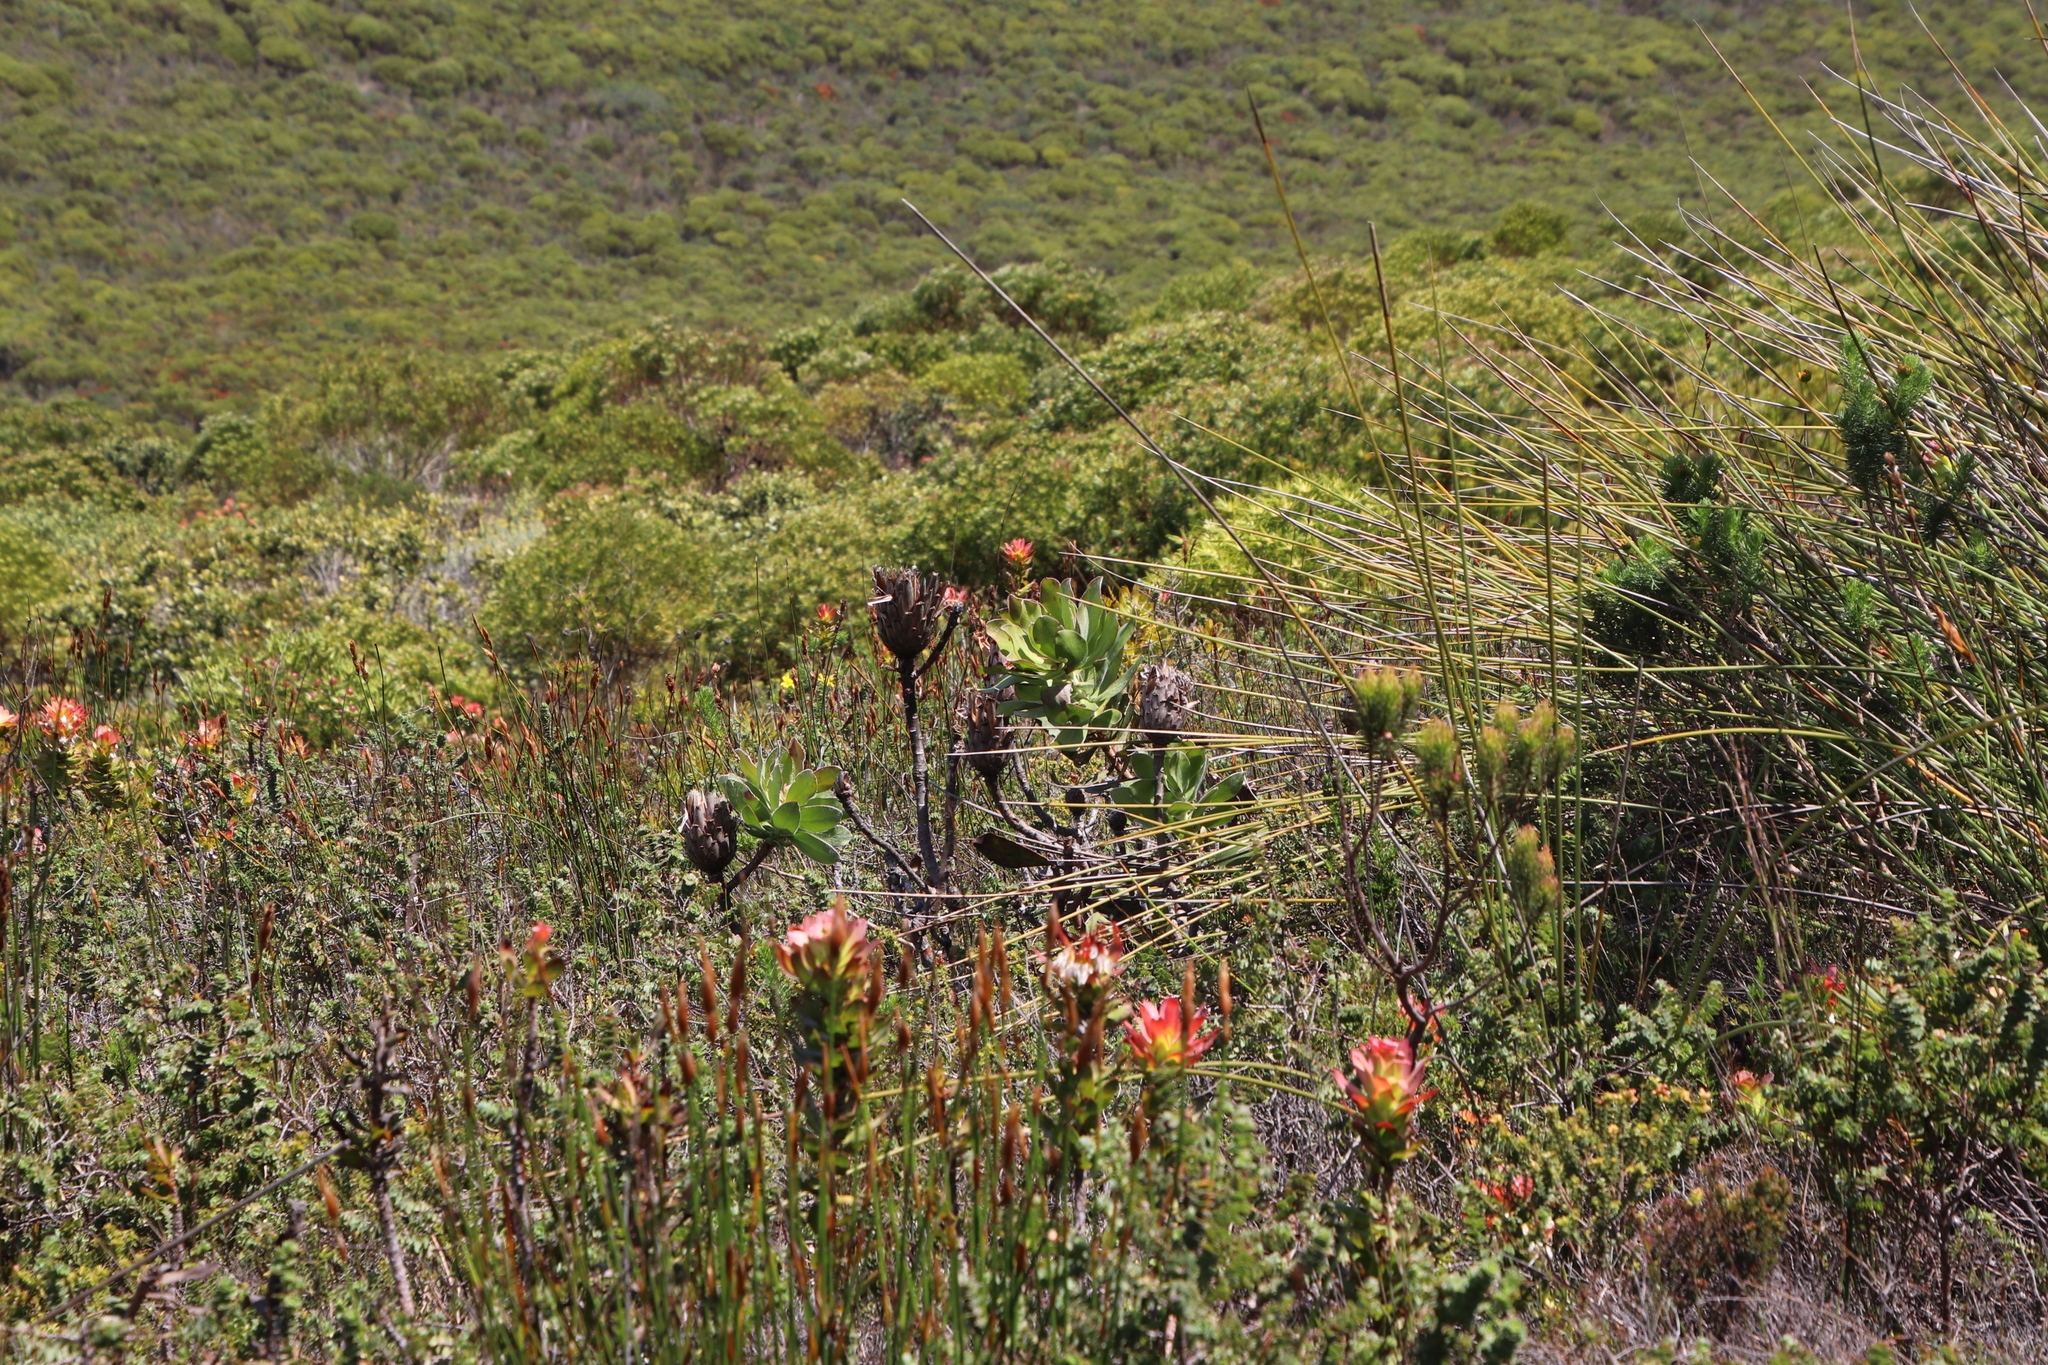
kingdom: Plantae
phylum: Tracheophyta
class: Magnoliopsida
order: Proteales
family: Proteaceae
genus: Protea
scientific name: Protea speciosa
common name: Brown-beard sugarbush
